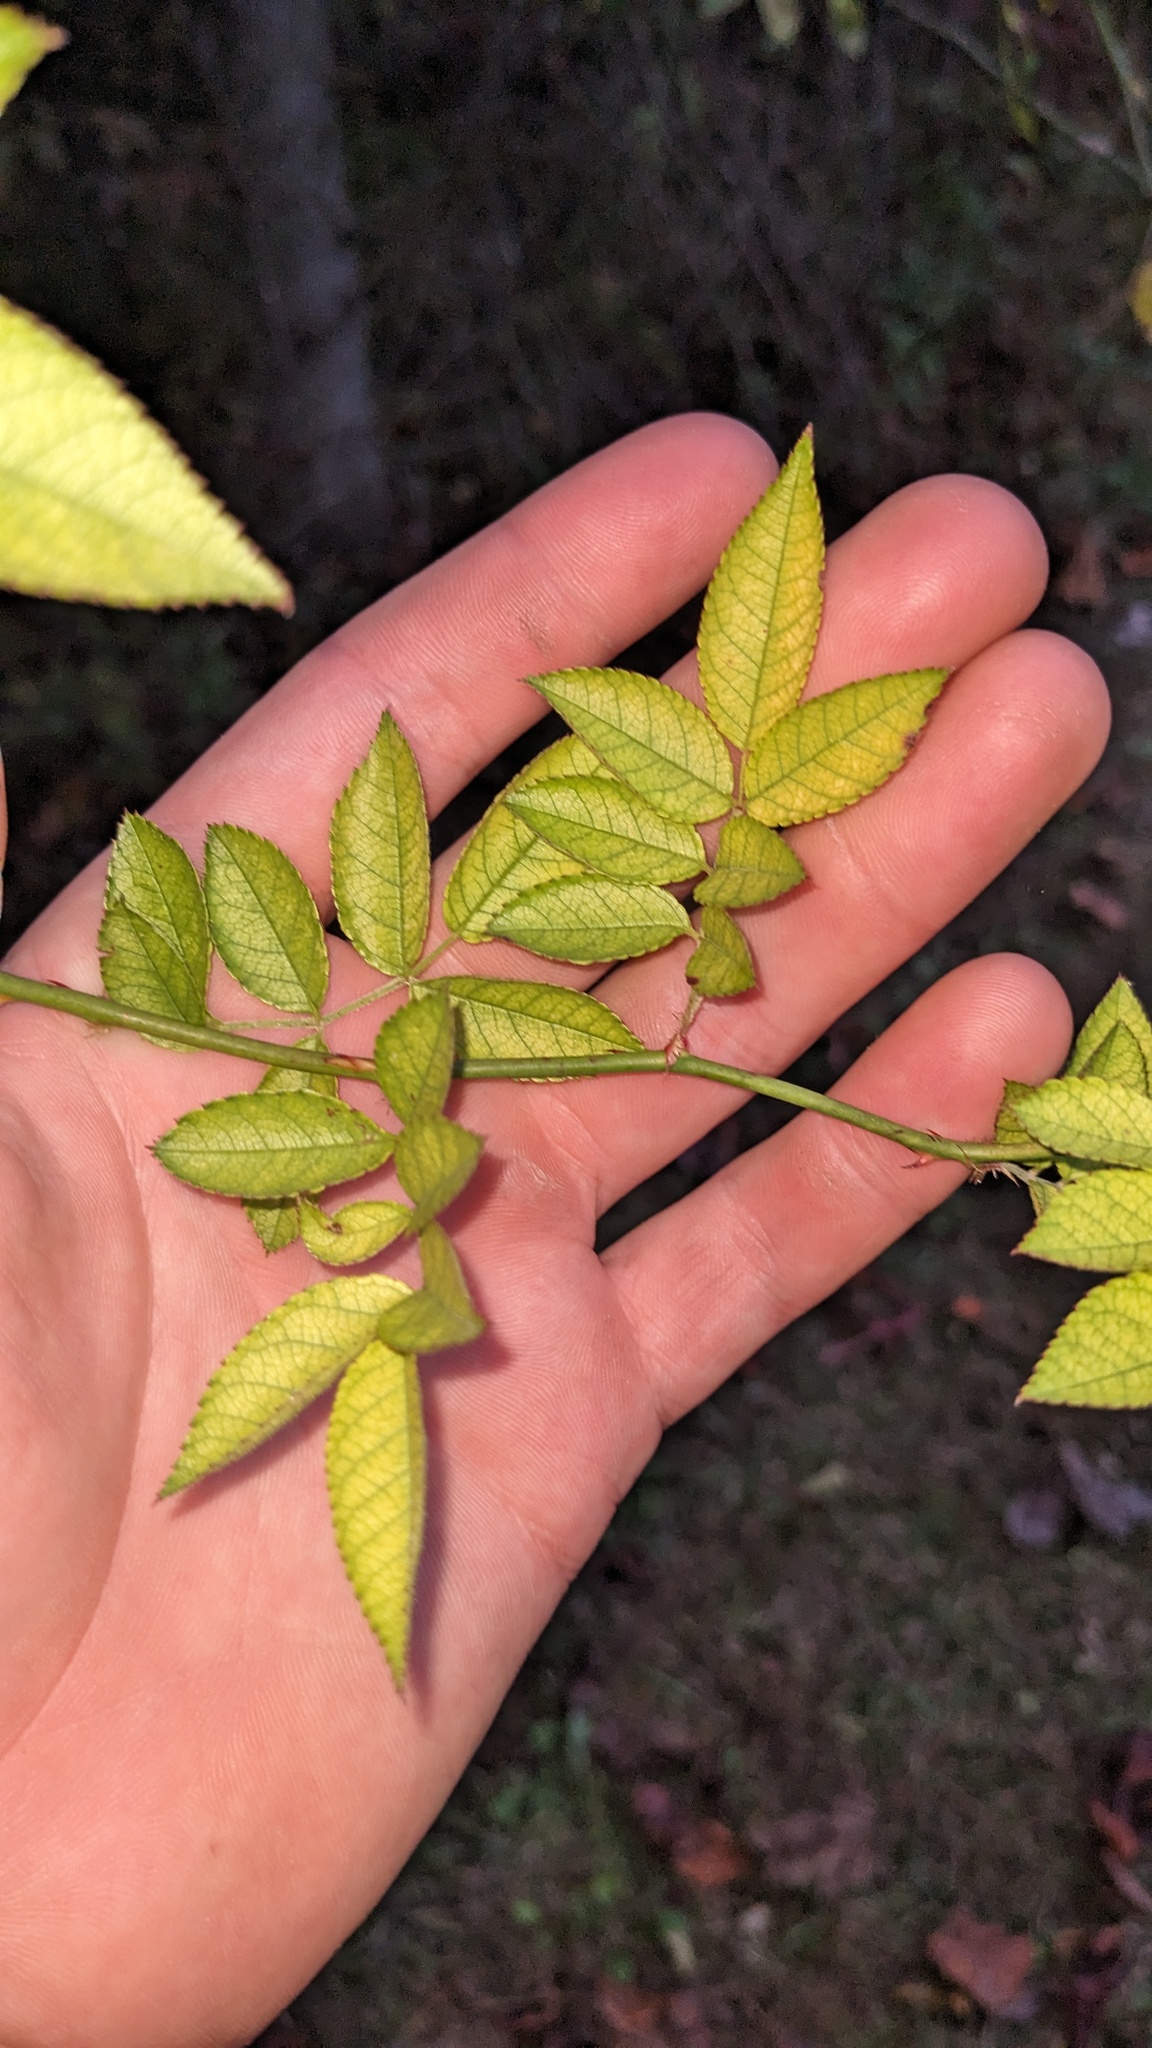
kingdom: Plantae
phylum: Tracheophyta
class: Magnoliopsida
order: Rosales
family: Rosaceae
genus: Rosa
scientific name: Rosa multiflora
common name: Multiflora rose
